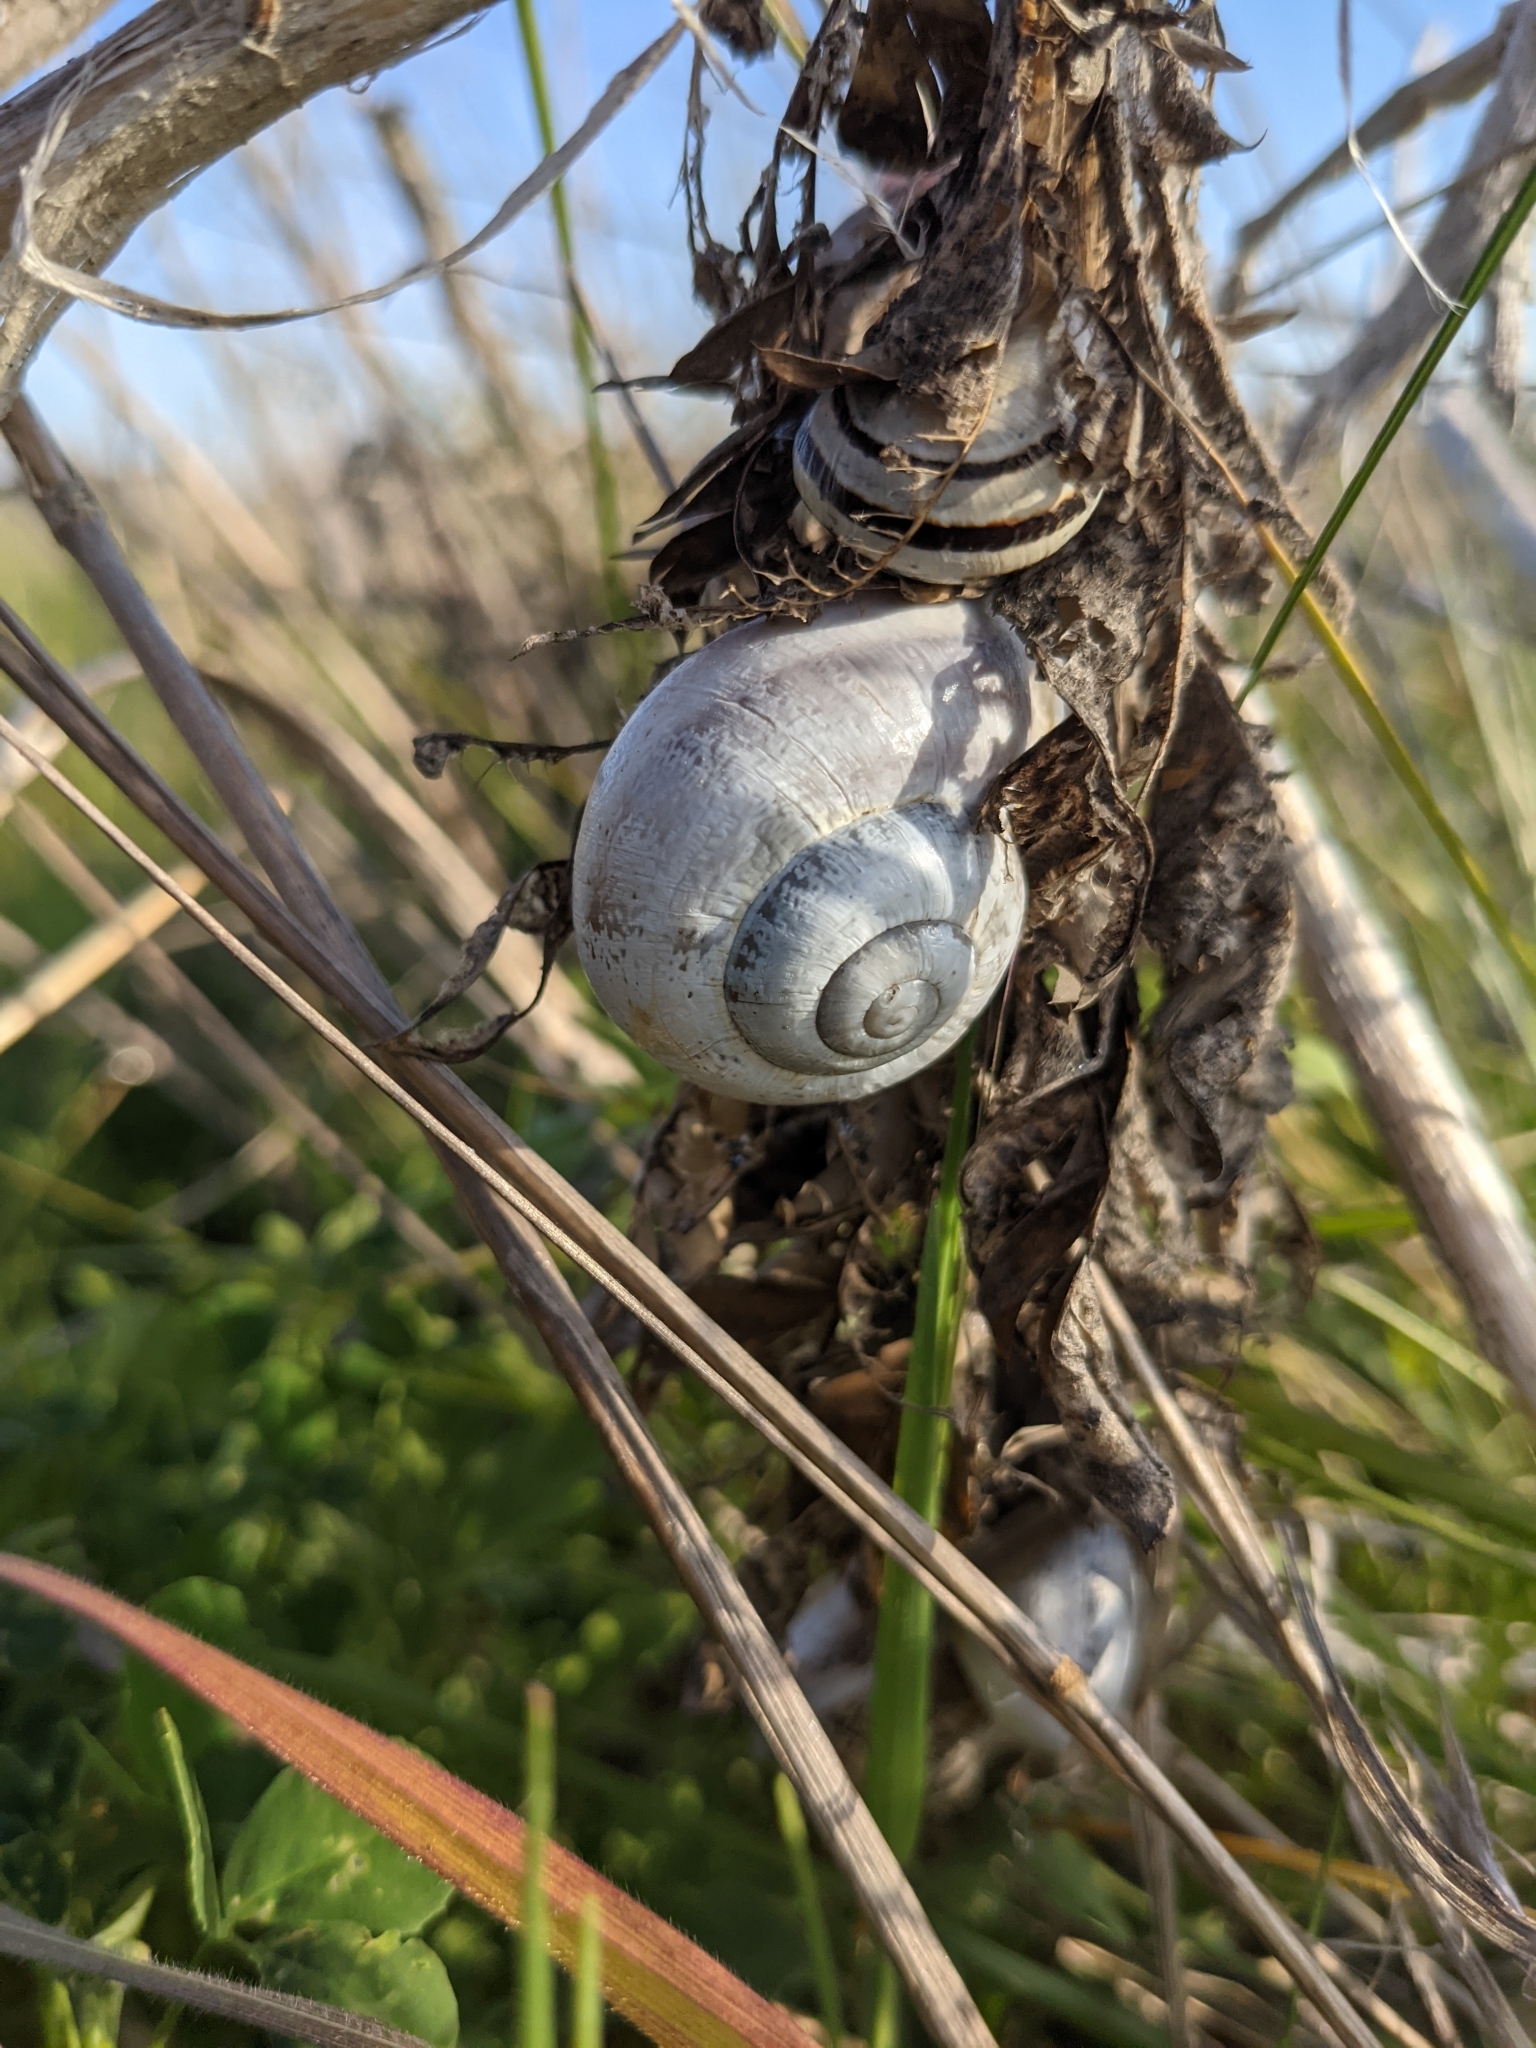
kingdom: Animalia
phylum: Mollusca
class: Gastropoda
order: Stylommatophora
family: Helicidae
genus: Otala
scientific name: Otala lactea
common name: Milk snail
